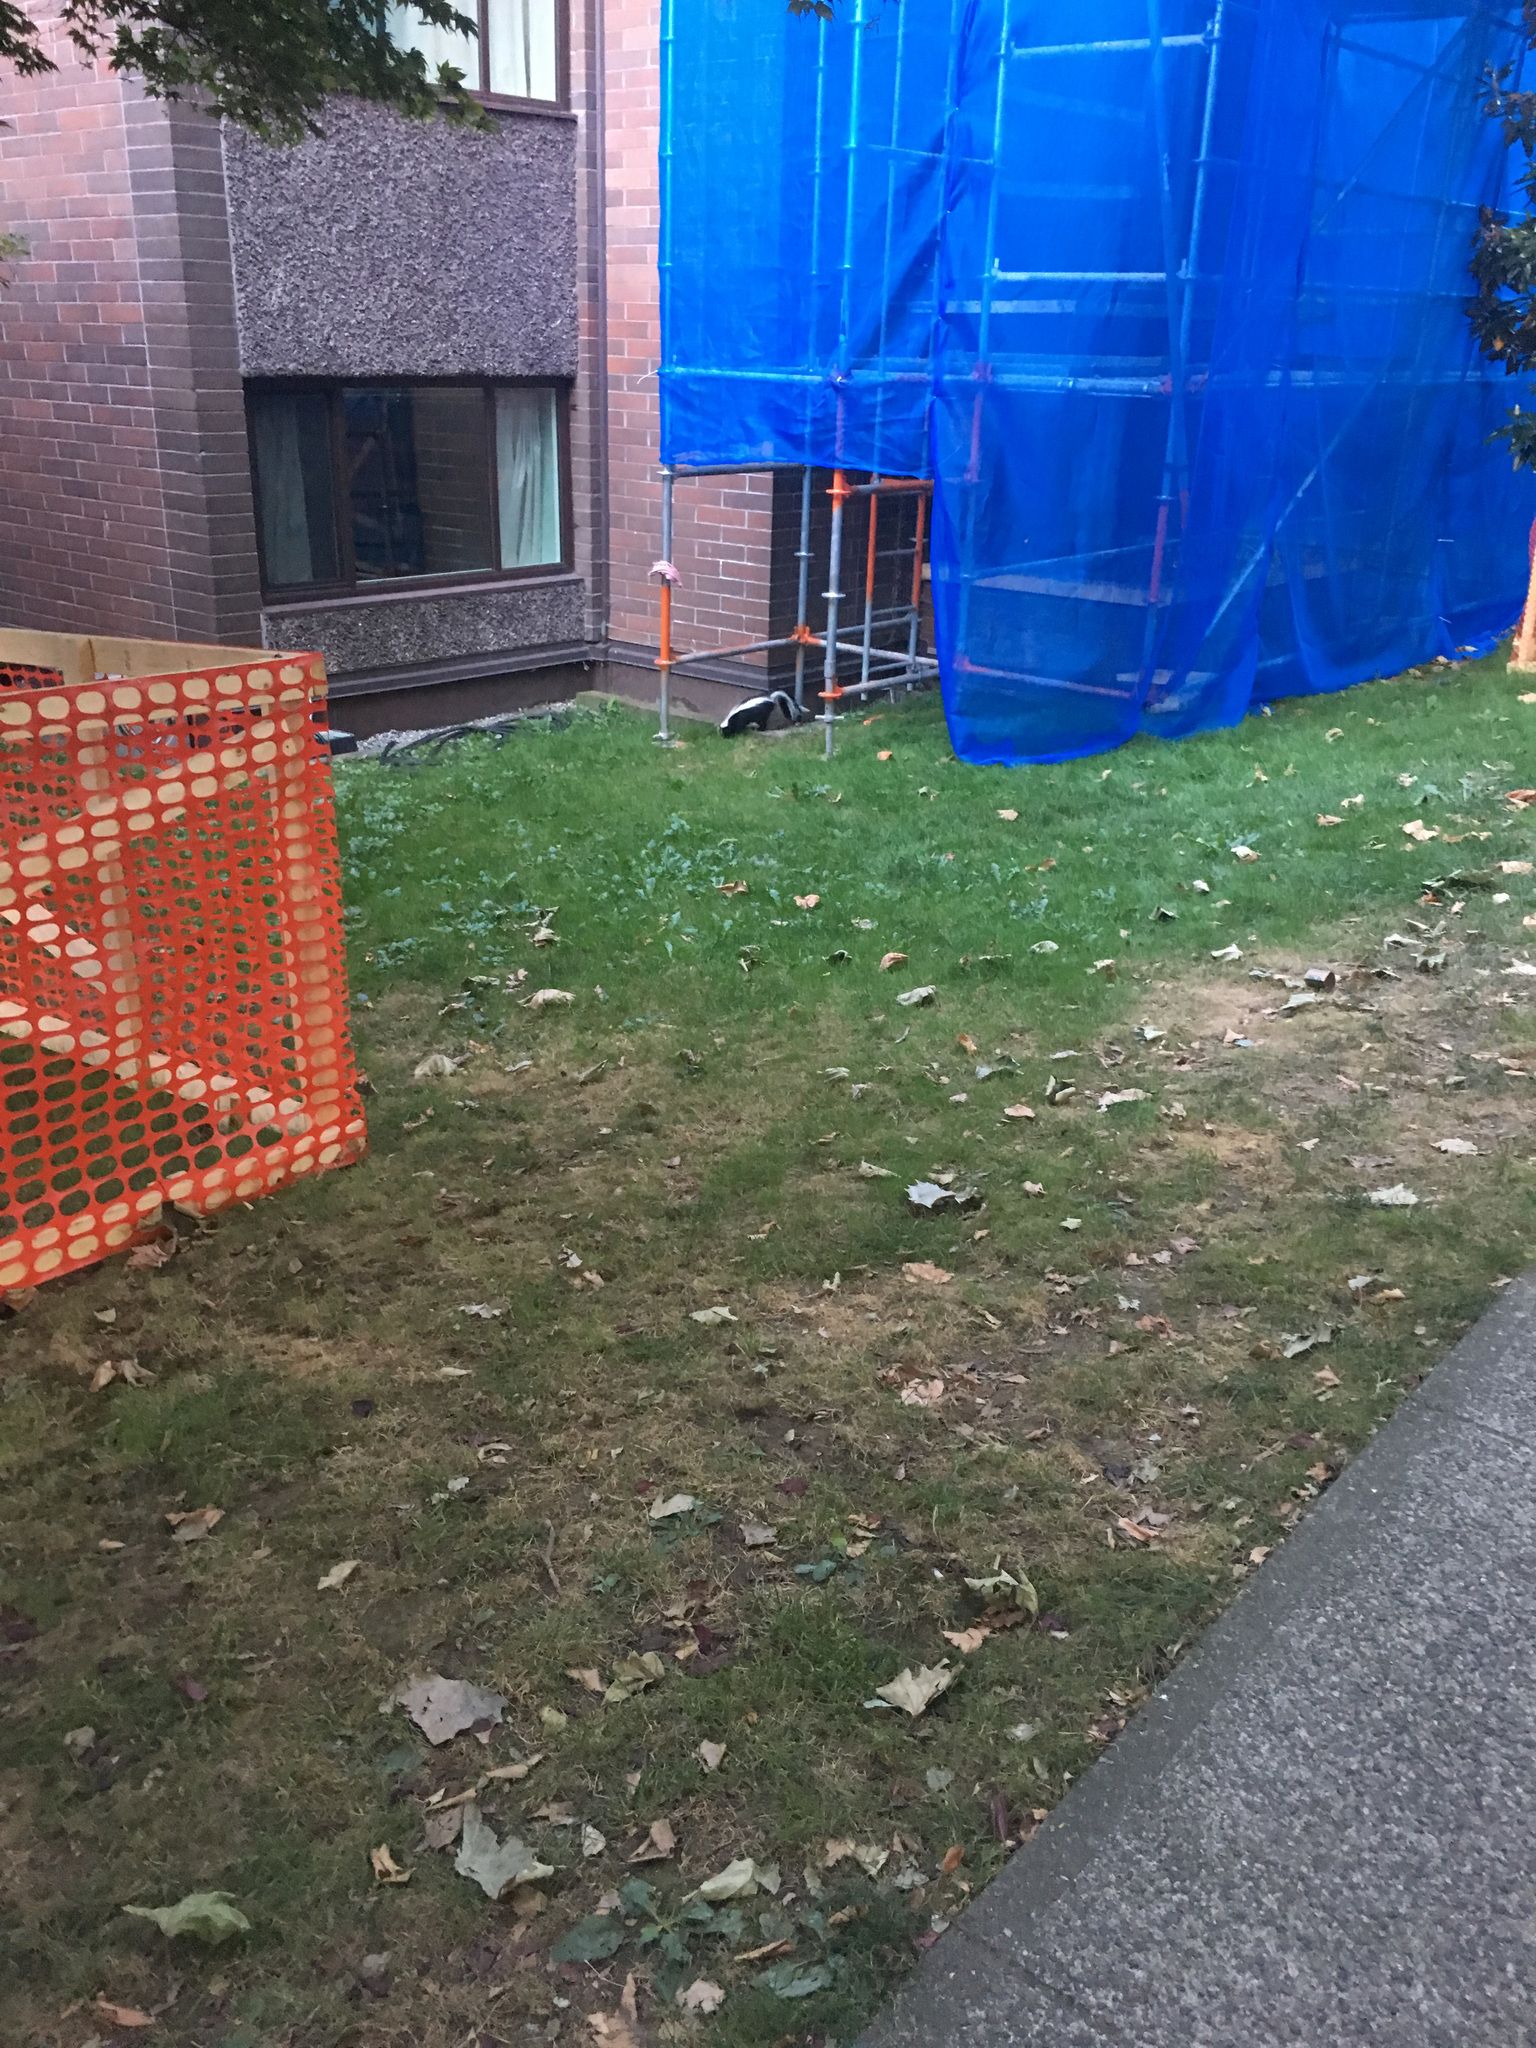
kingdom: Animalia
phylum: Chordata
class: Mammalia
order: Carnivora
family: Mephitidae
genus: Mephitis
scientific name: Mephitis mephitis
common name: Striped skunk
